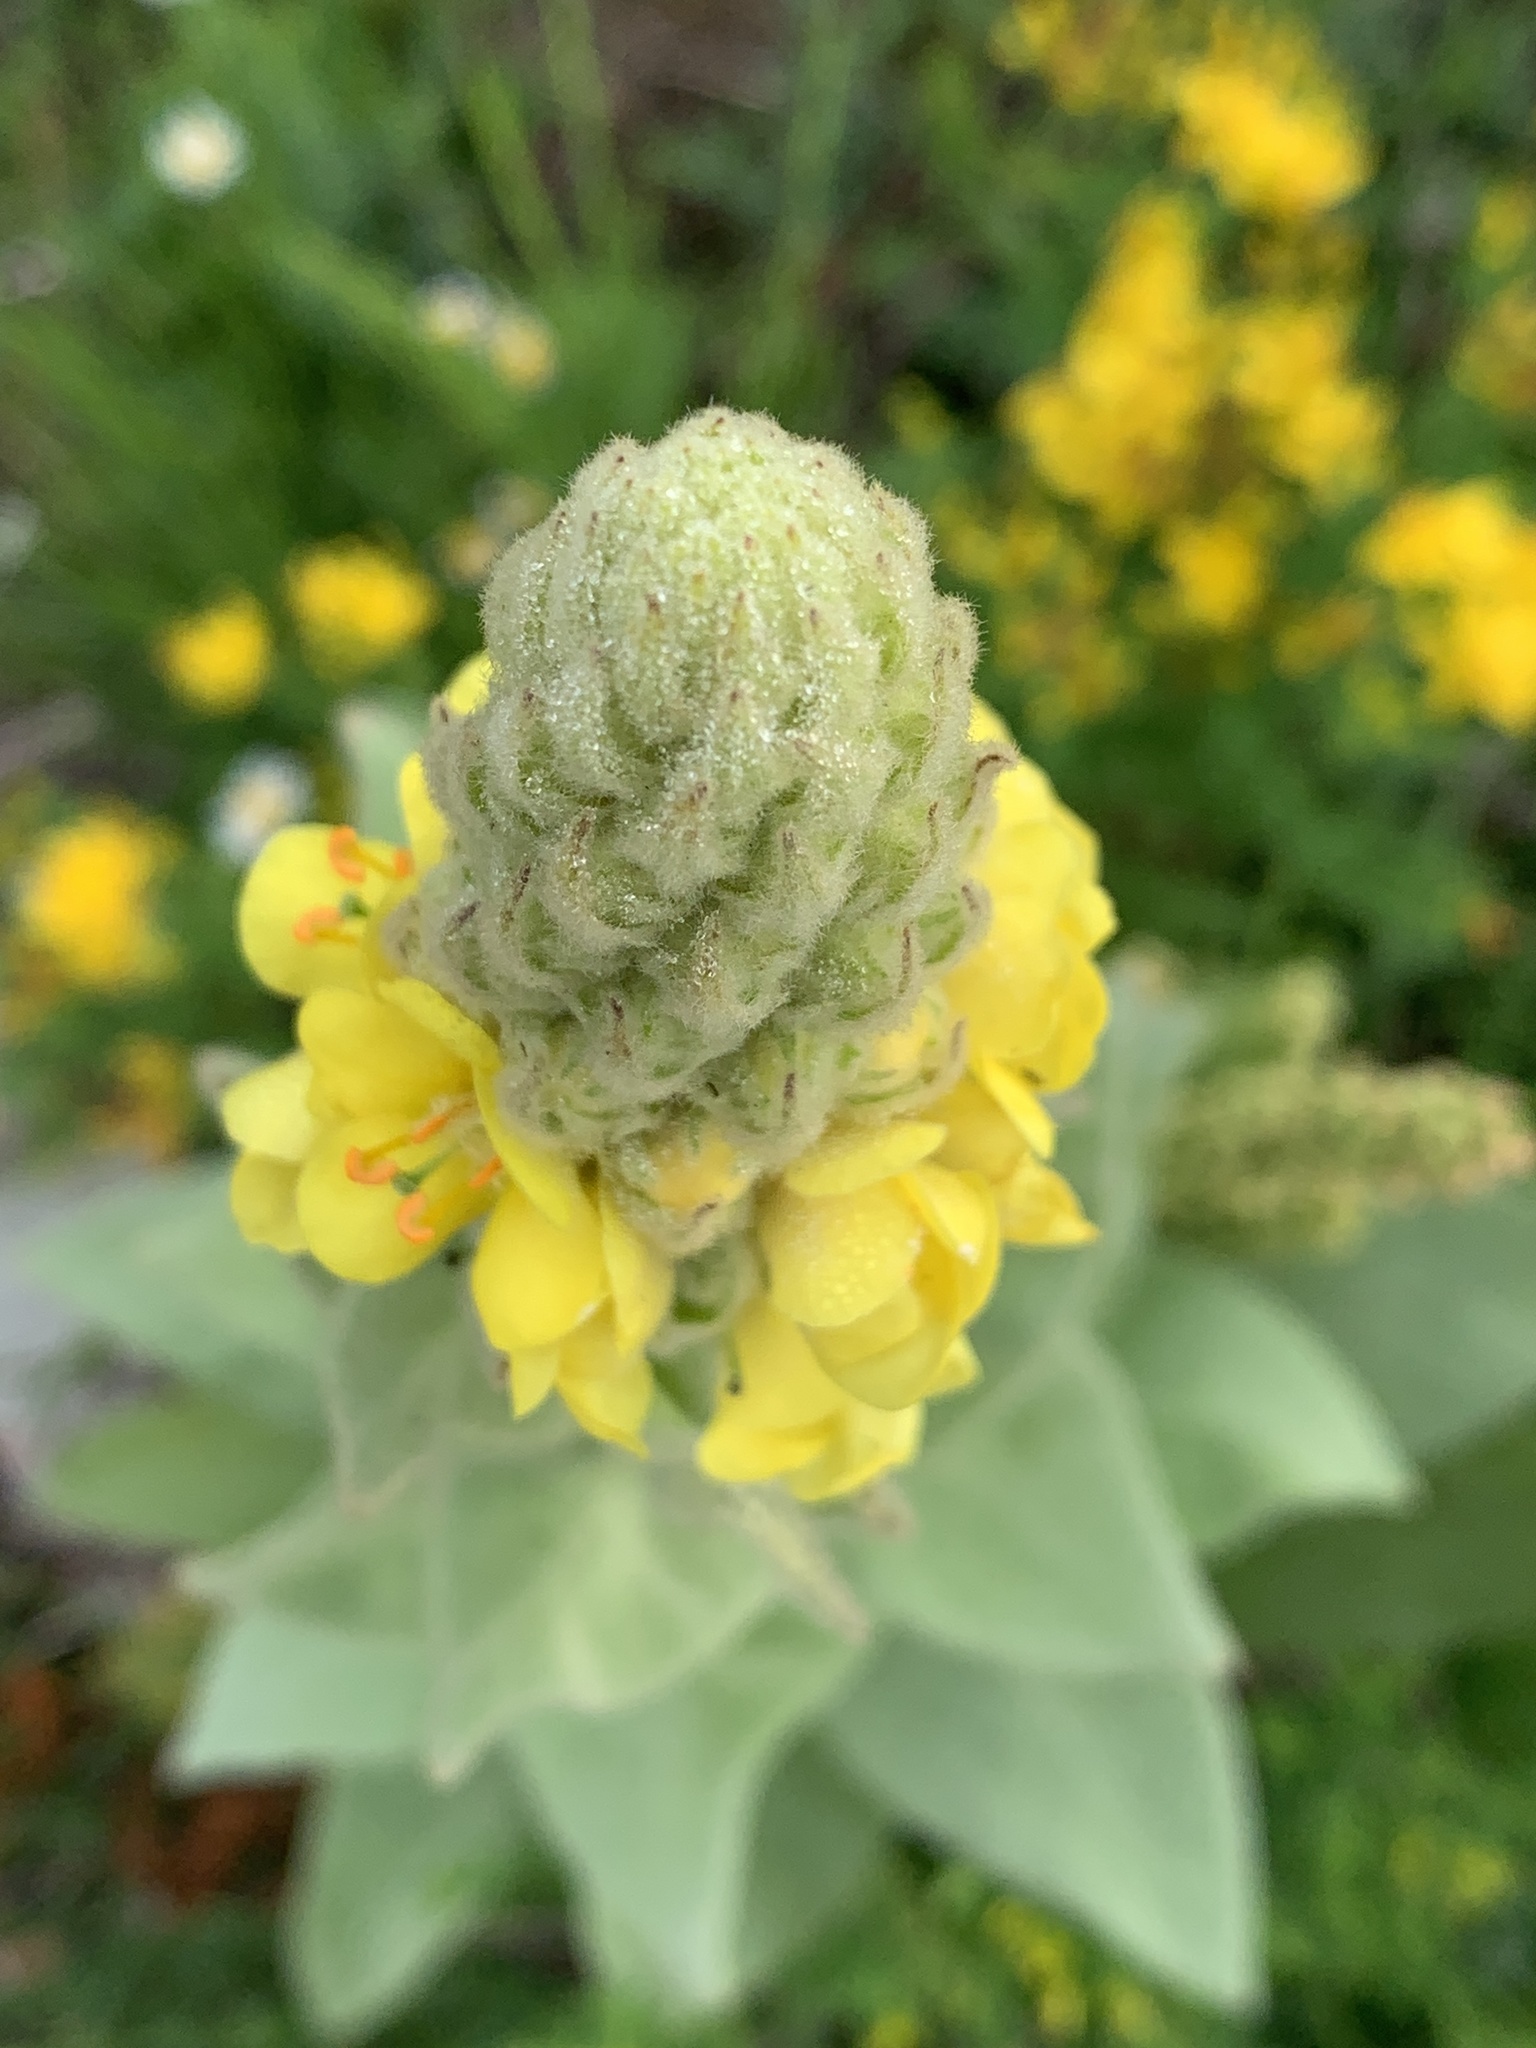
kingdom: Plantae
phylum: Tracheophyta
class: Magnoliopsida
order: Lamiales
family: Scrophulariaceae
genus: Verbascum
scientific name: Verbascum thapsus
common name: Common mullein
